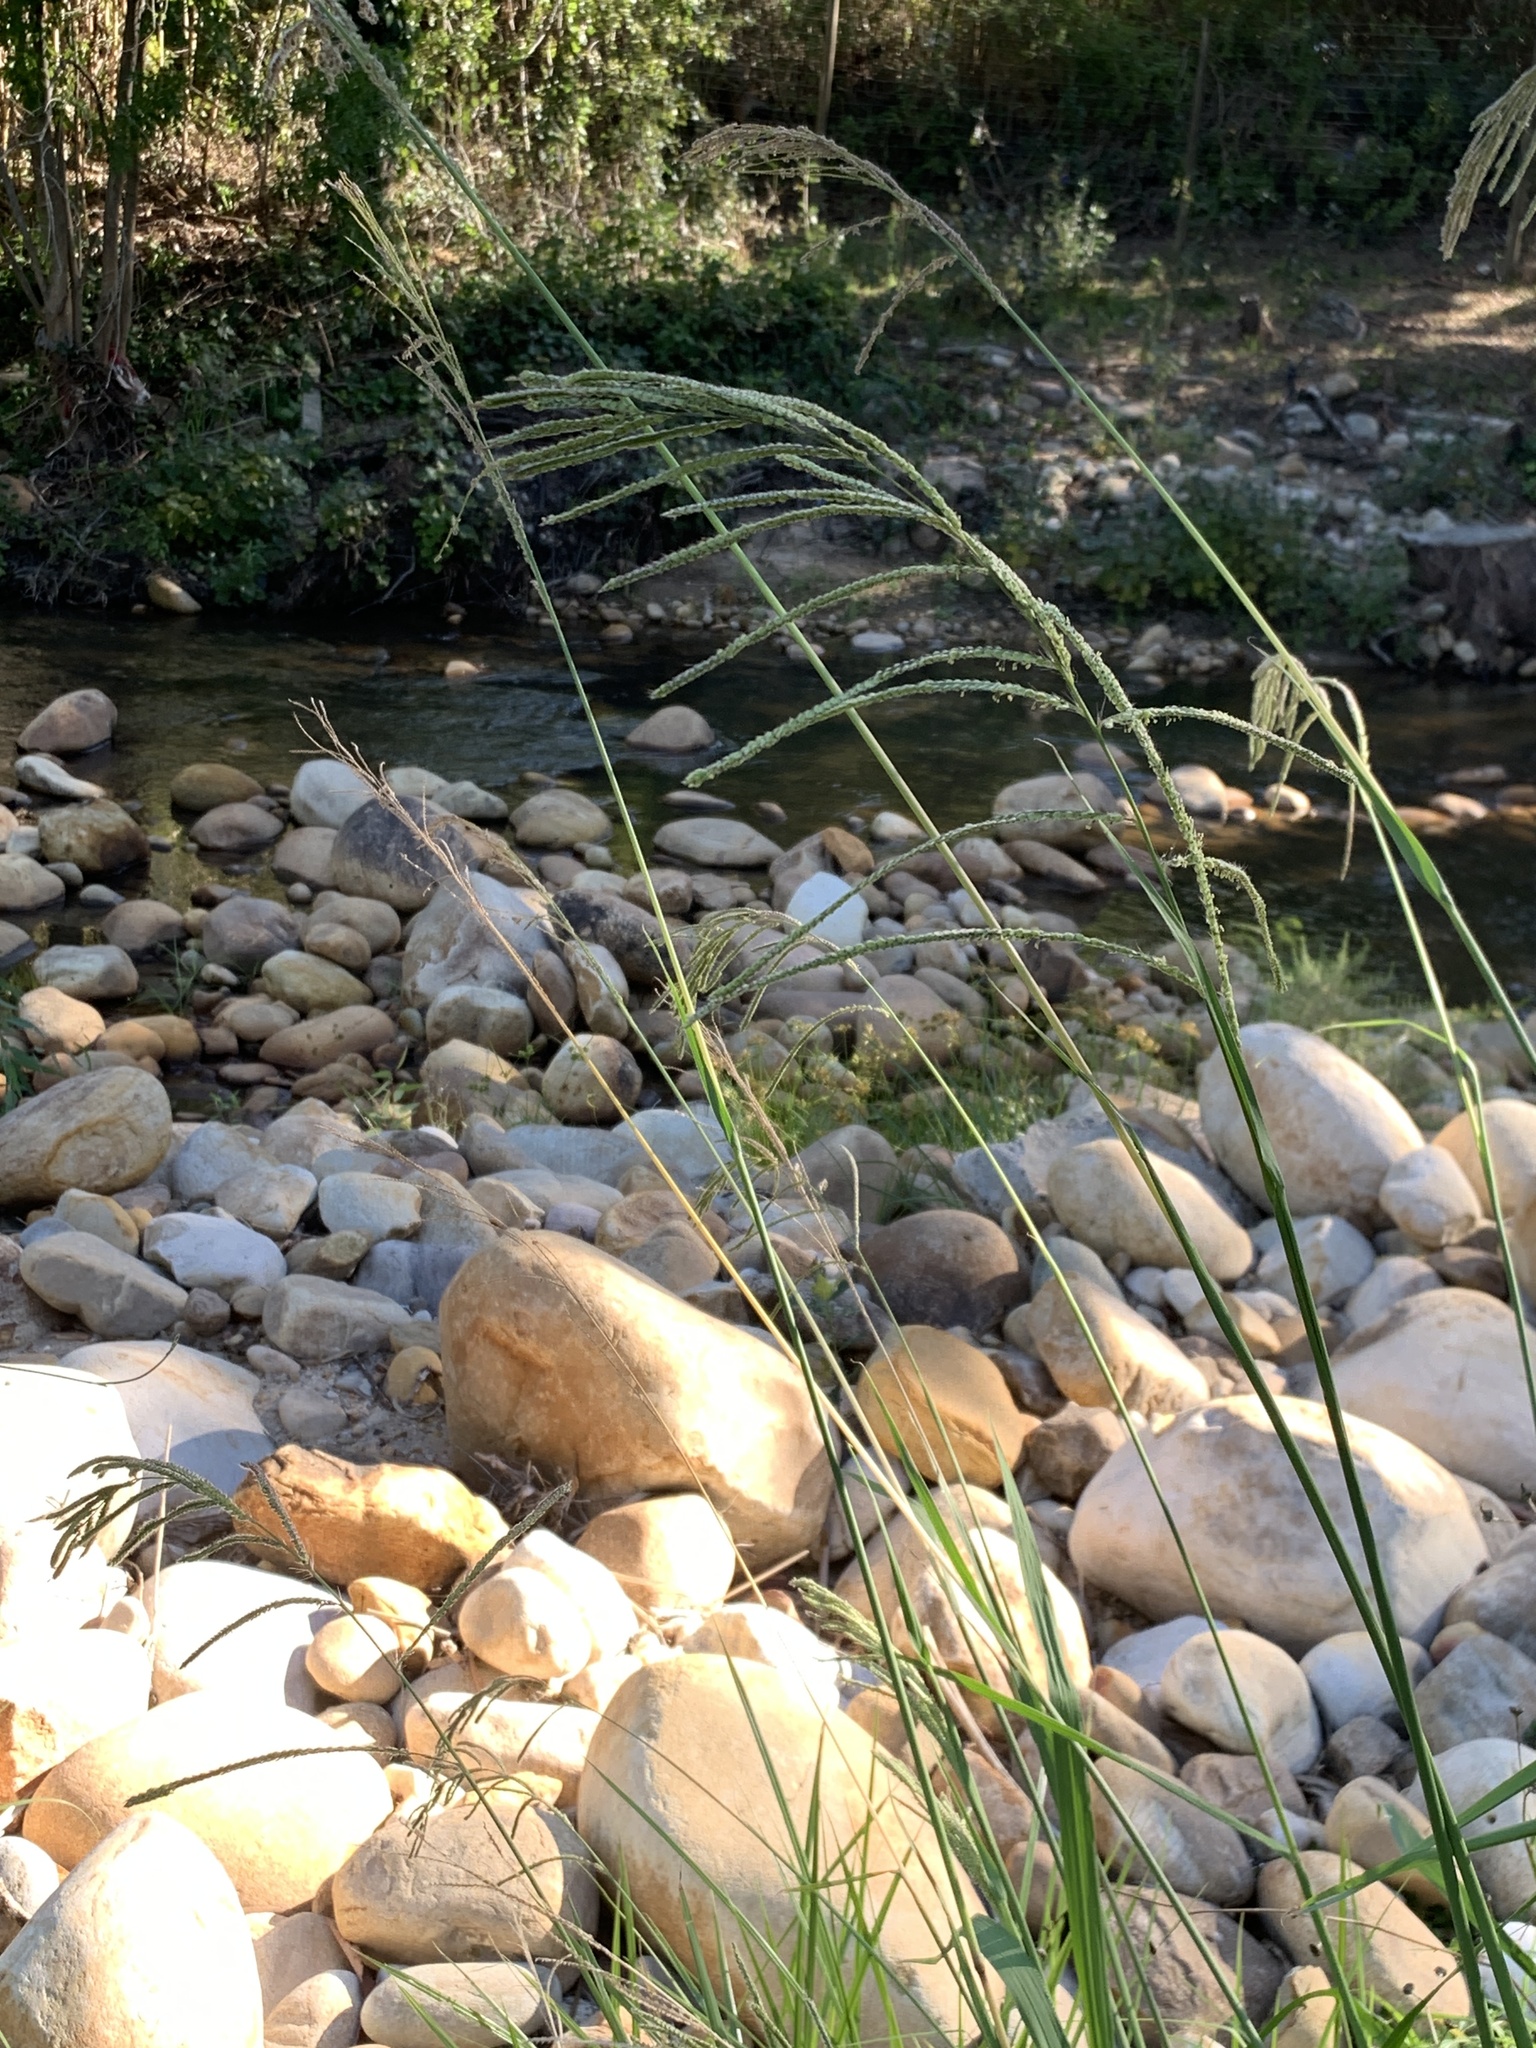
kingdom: Plantae
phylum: Tracheophyta
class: Liliopsida
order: Poales
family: Poaceae
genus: Paspalum
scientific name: Paspalum urvillei
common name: Vasey's grass
